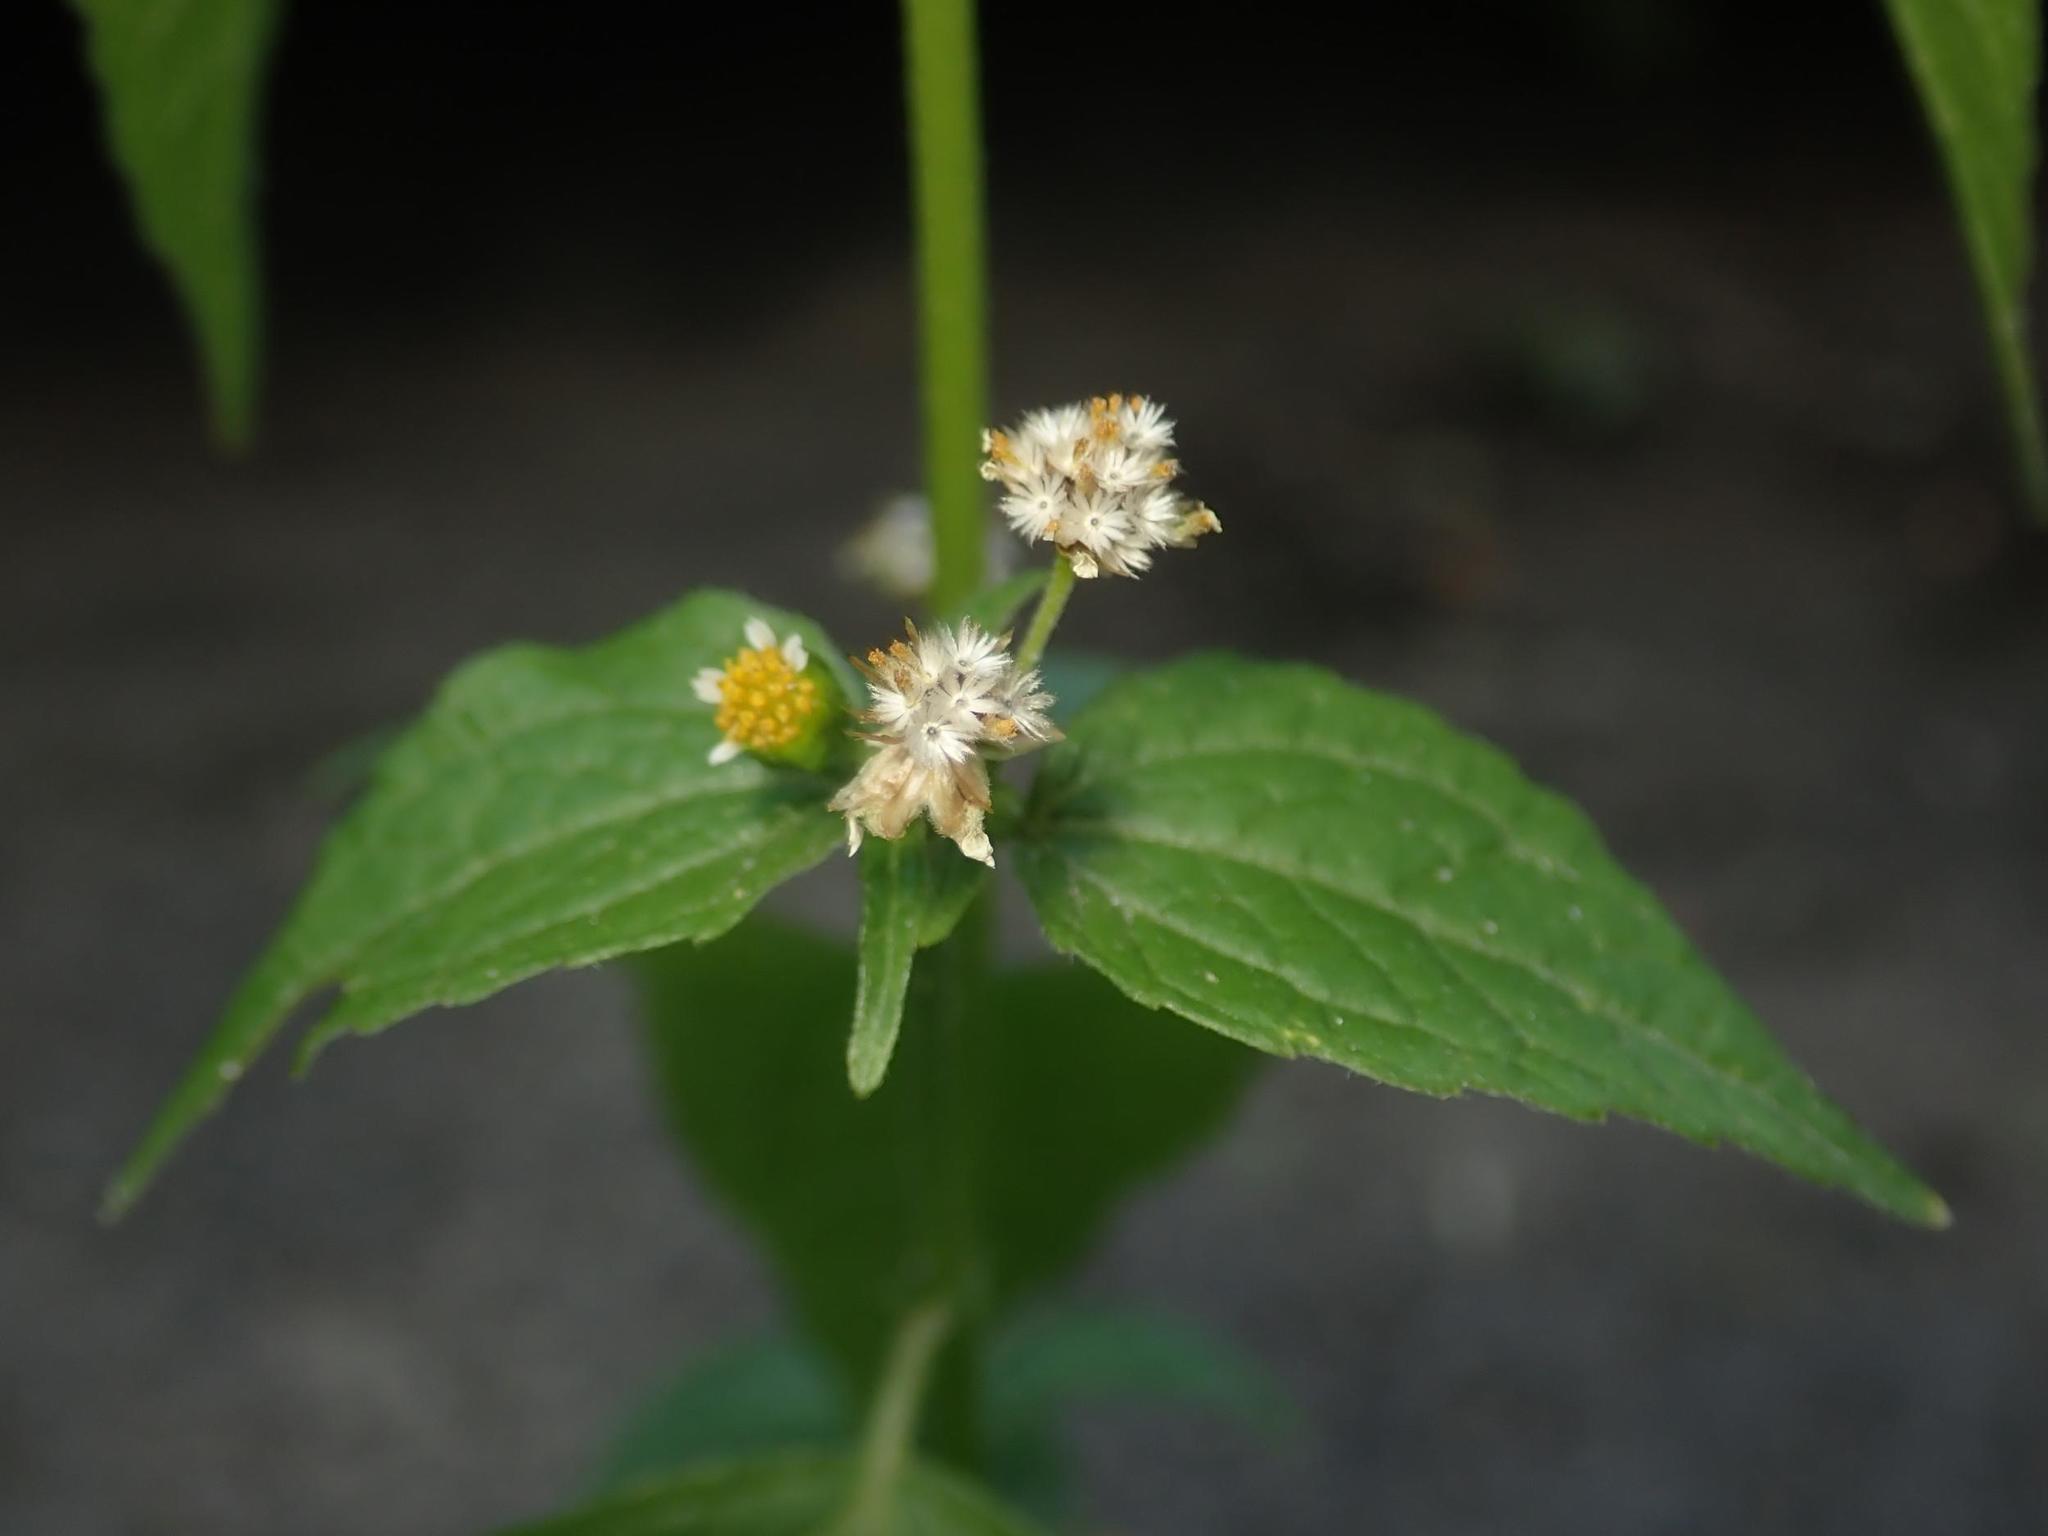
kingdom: Plantae
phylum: Tracheophyta
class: Magnoliopsida
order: Asterales
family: Asteraceae
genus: Galinsoga
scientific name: Galinsoga parviflora
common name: Gallant soldier
